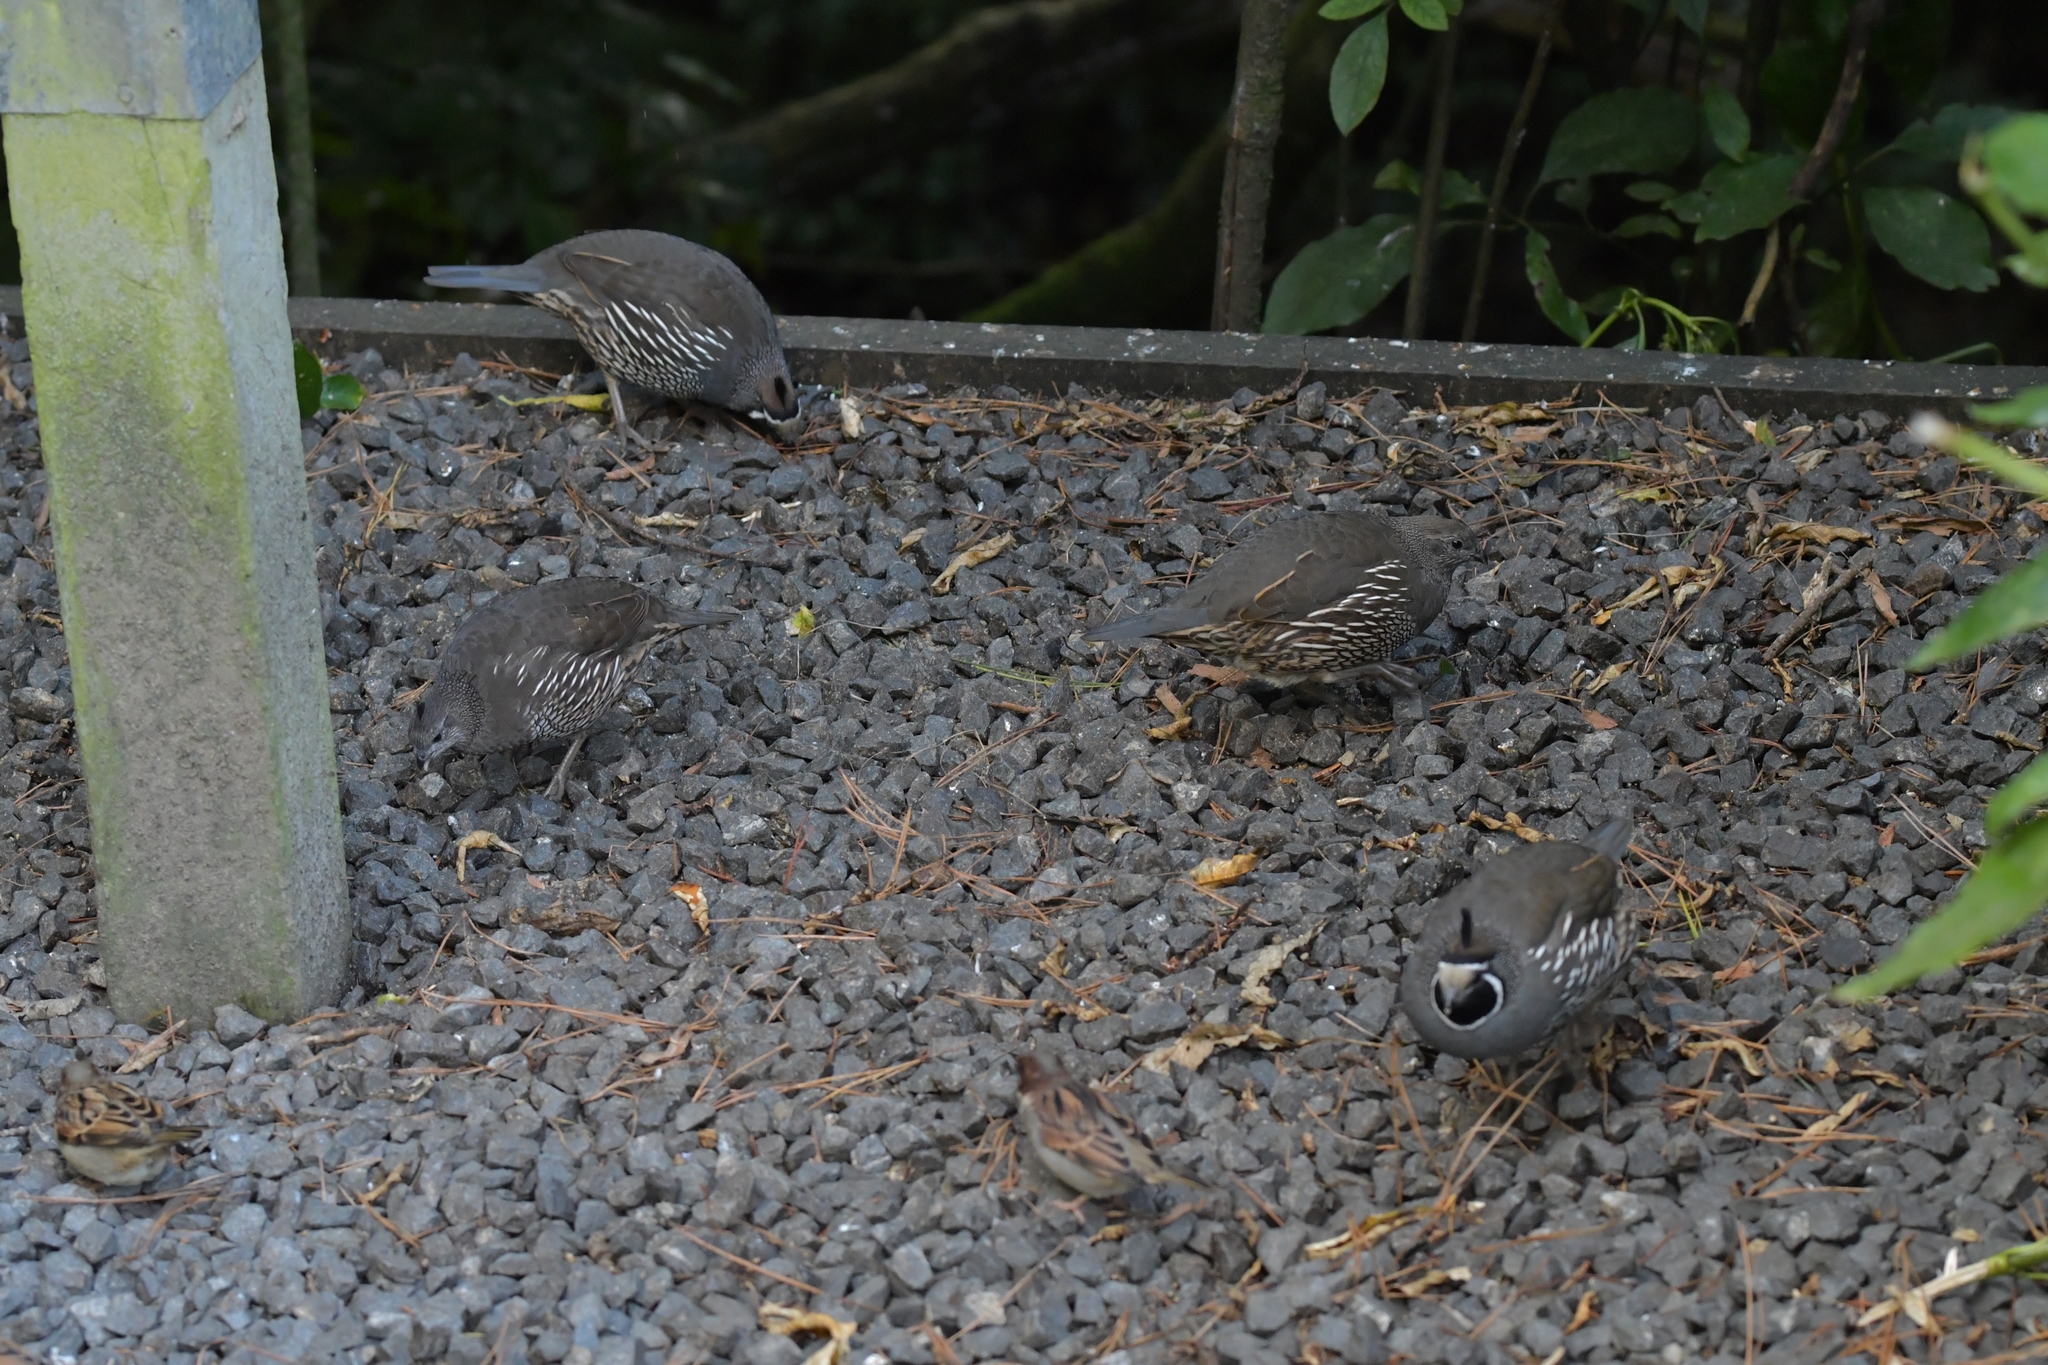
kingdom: Animalia
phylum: Chordata
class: Aves
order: Galliformes
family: Odontophoridae
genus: Callipepla
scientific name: Callipepla californica
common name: California quail
